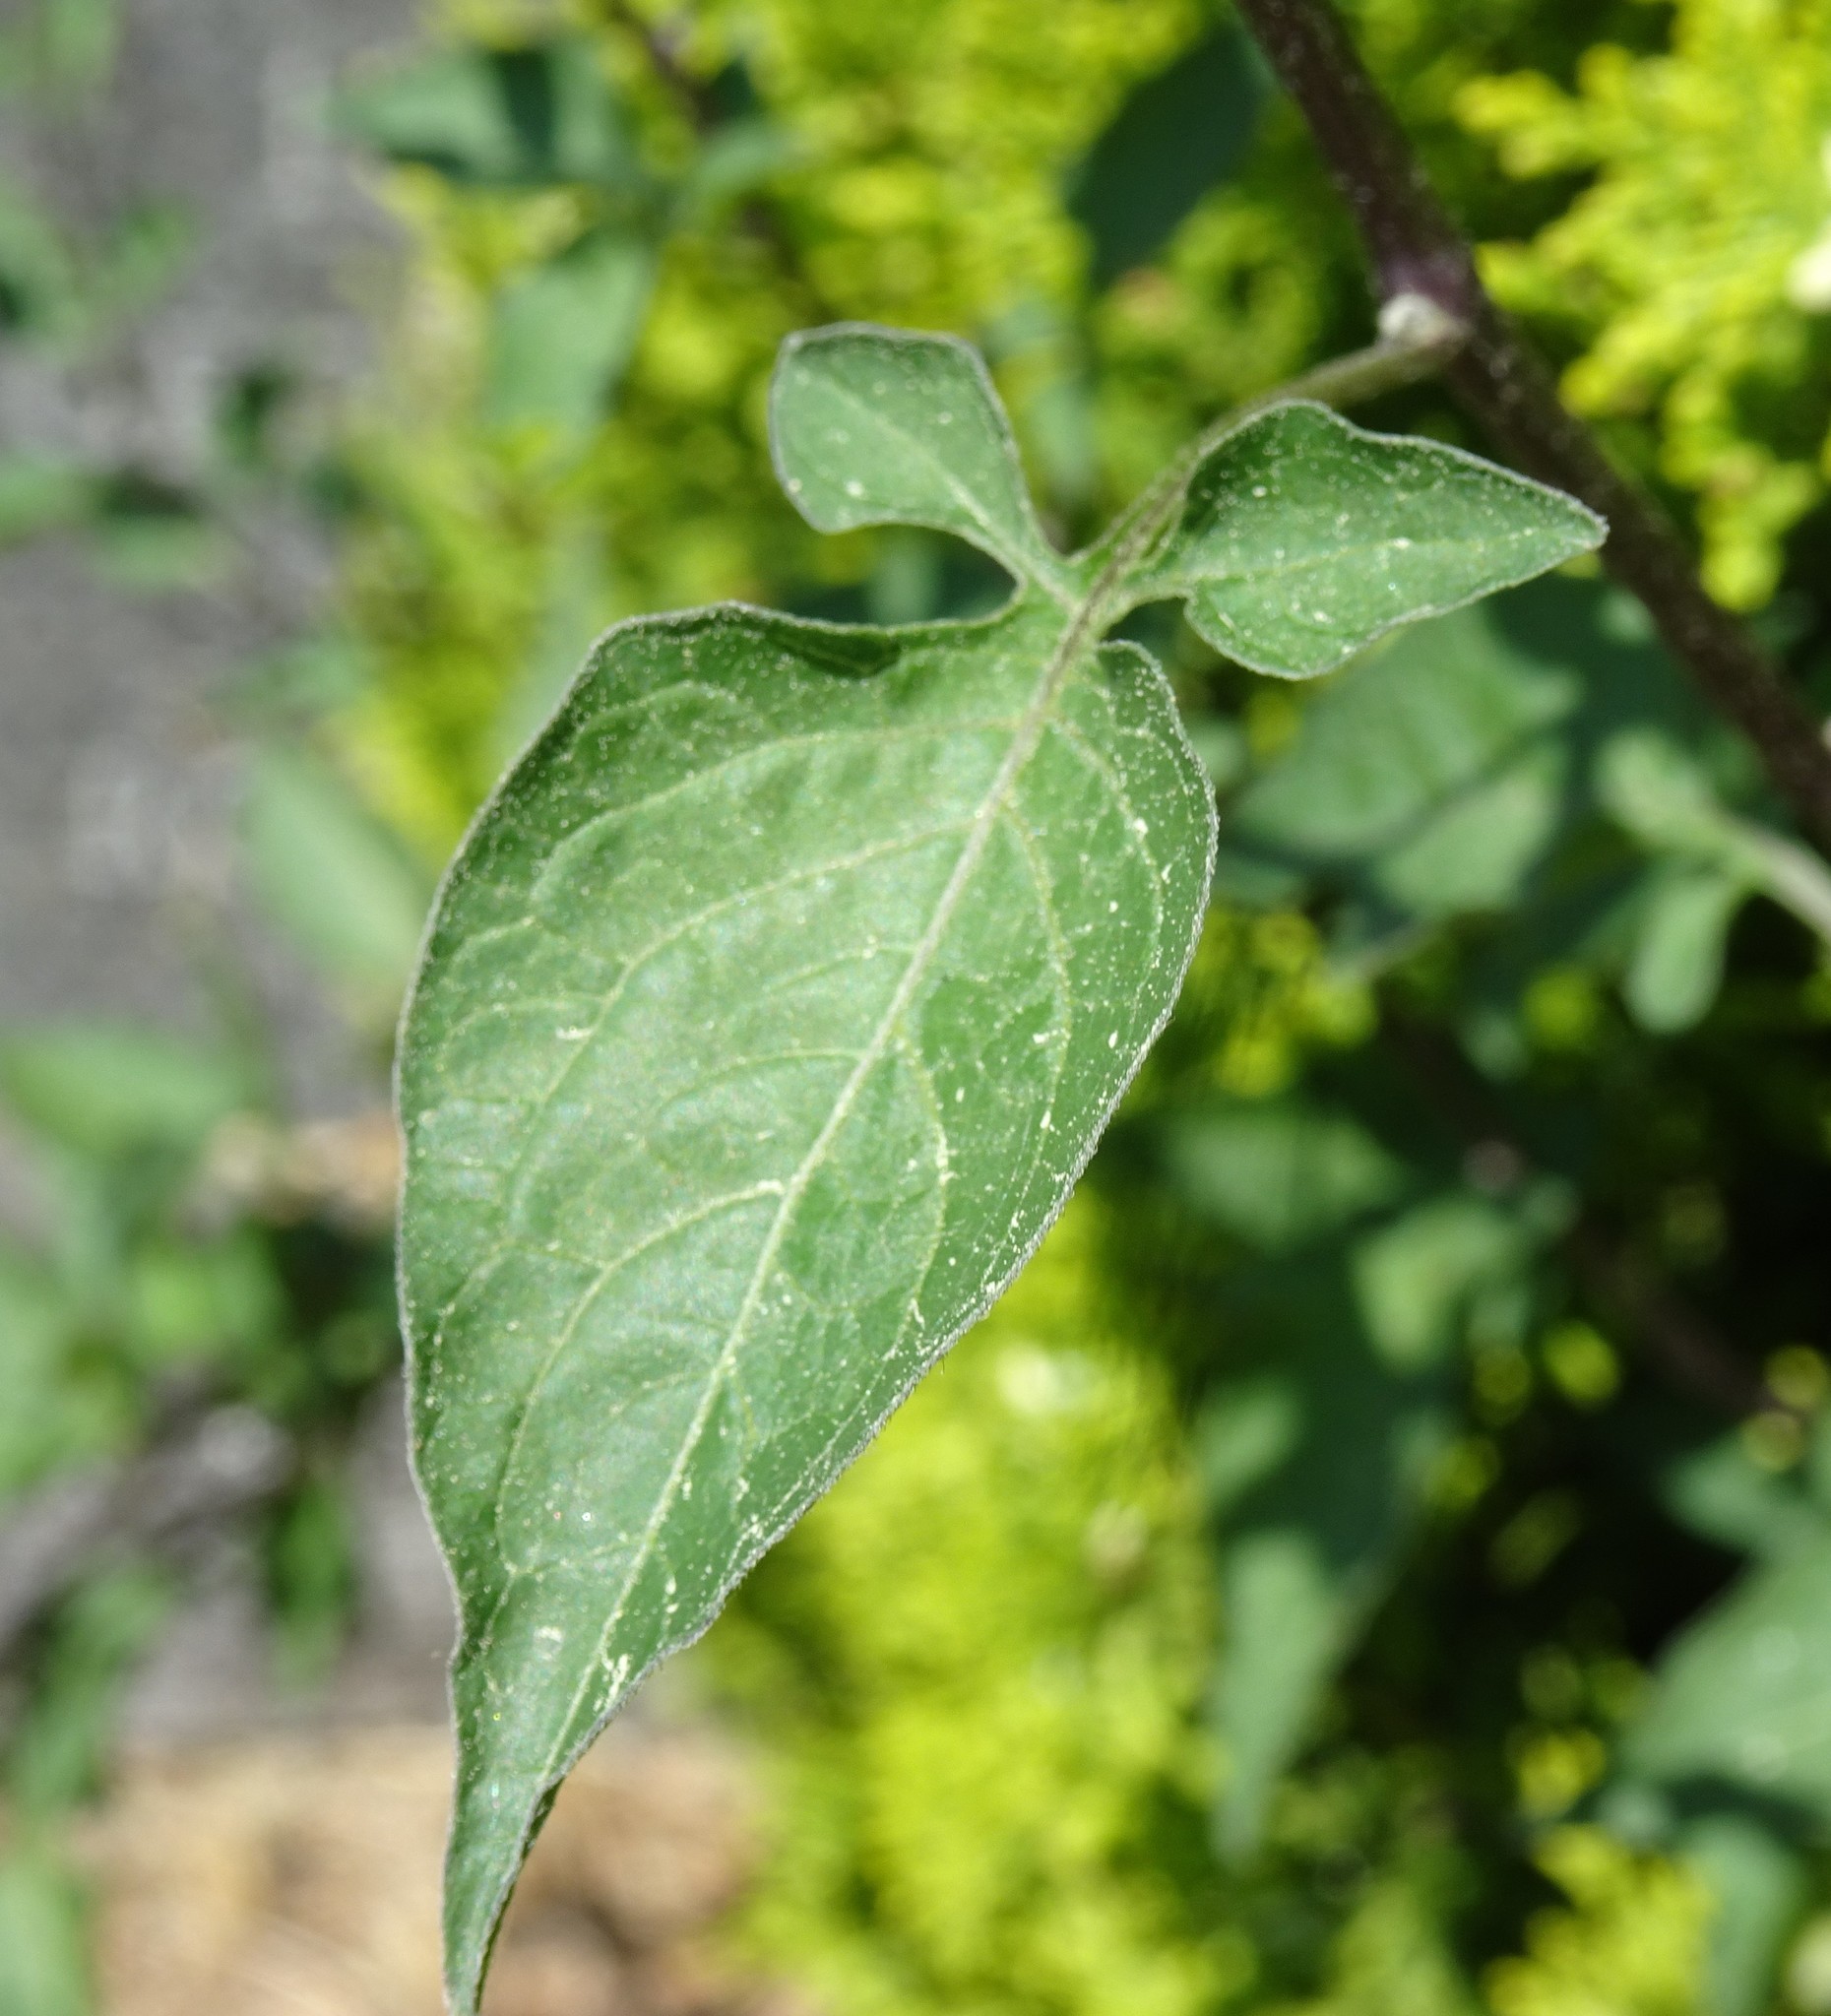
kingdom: Plantae
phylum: Tracheophyta
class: Magnoliopsida
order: Solanales
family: Solanaceae
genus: Solanum
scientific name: Solanum dulcamara
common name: Climbing nightshade
